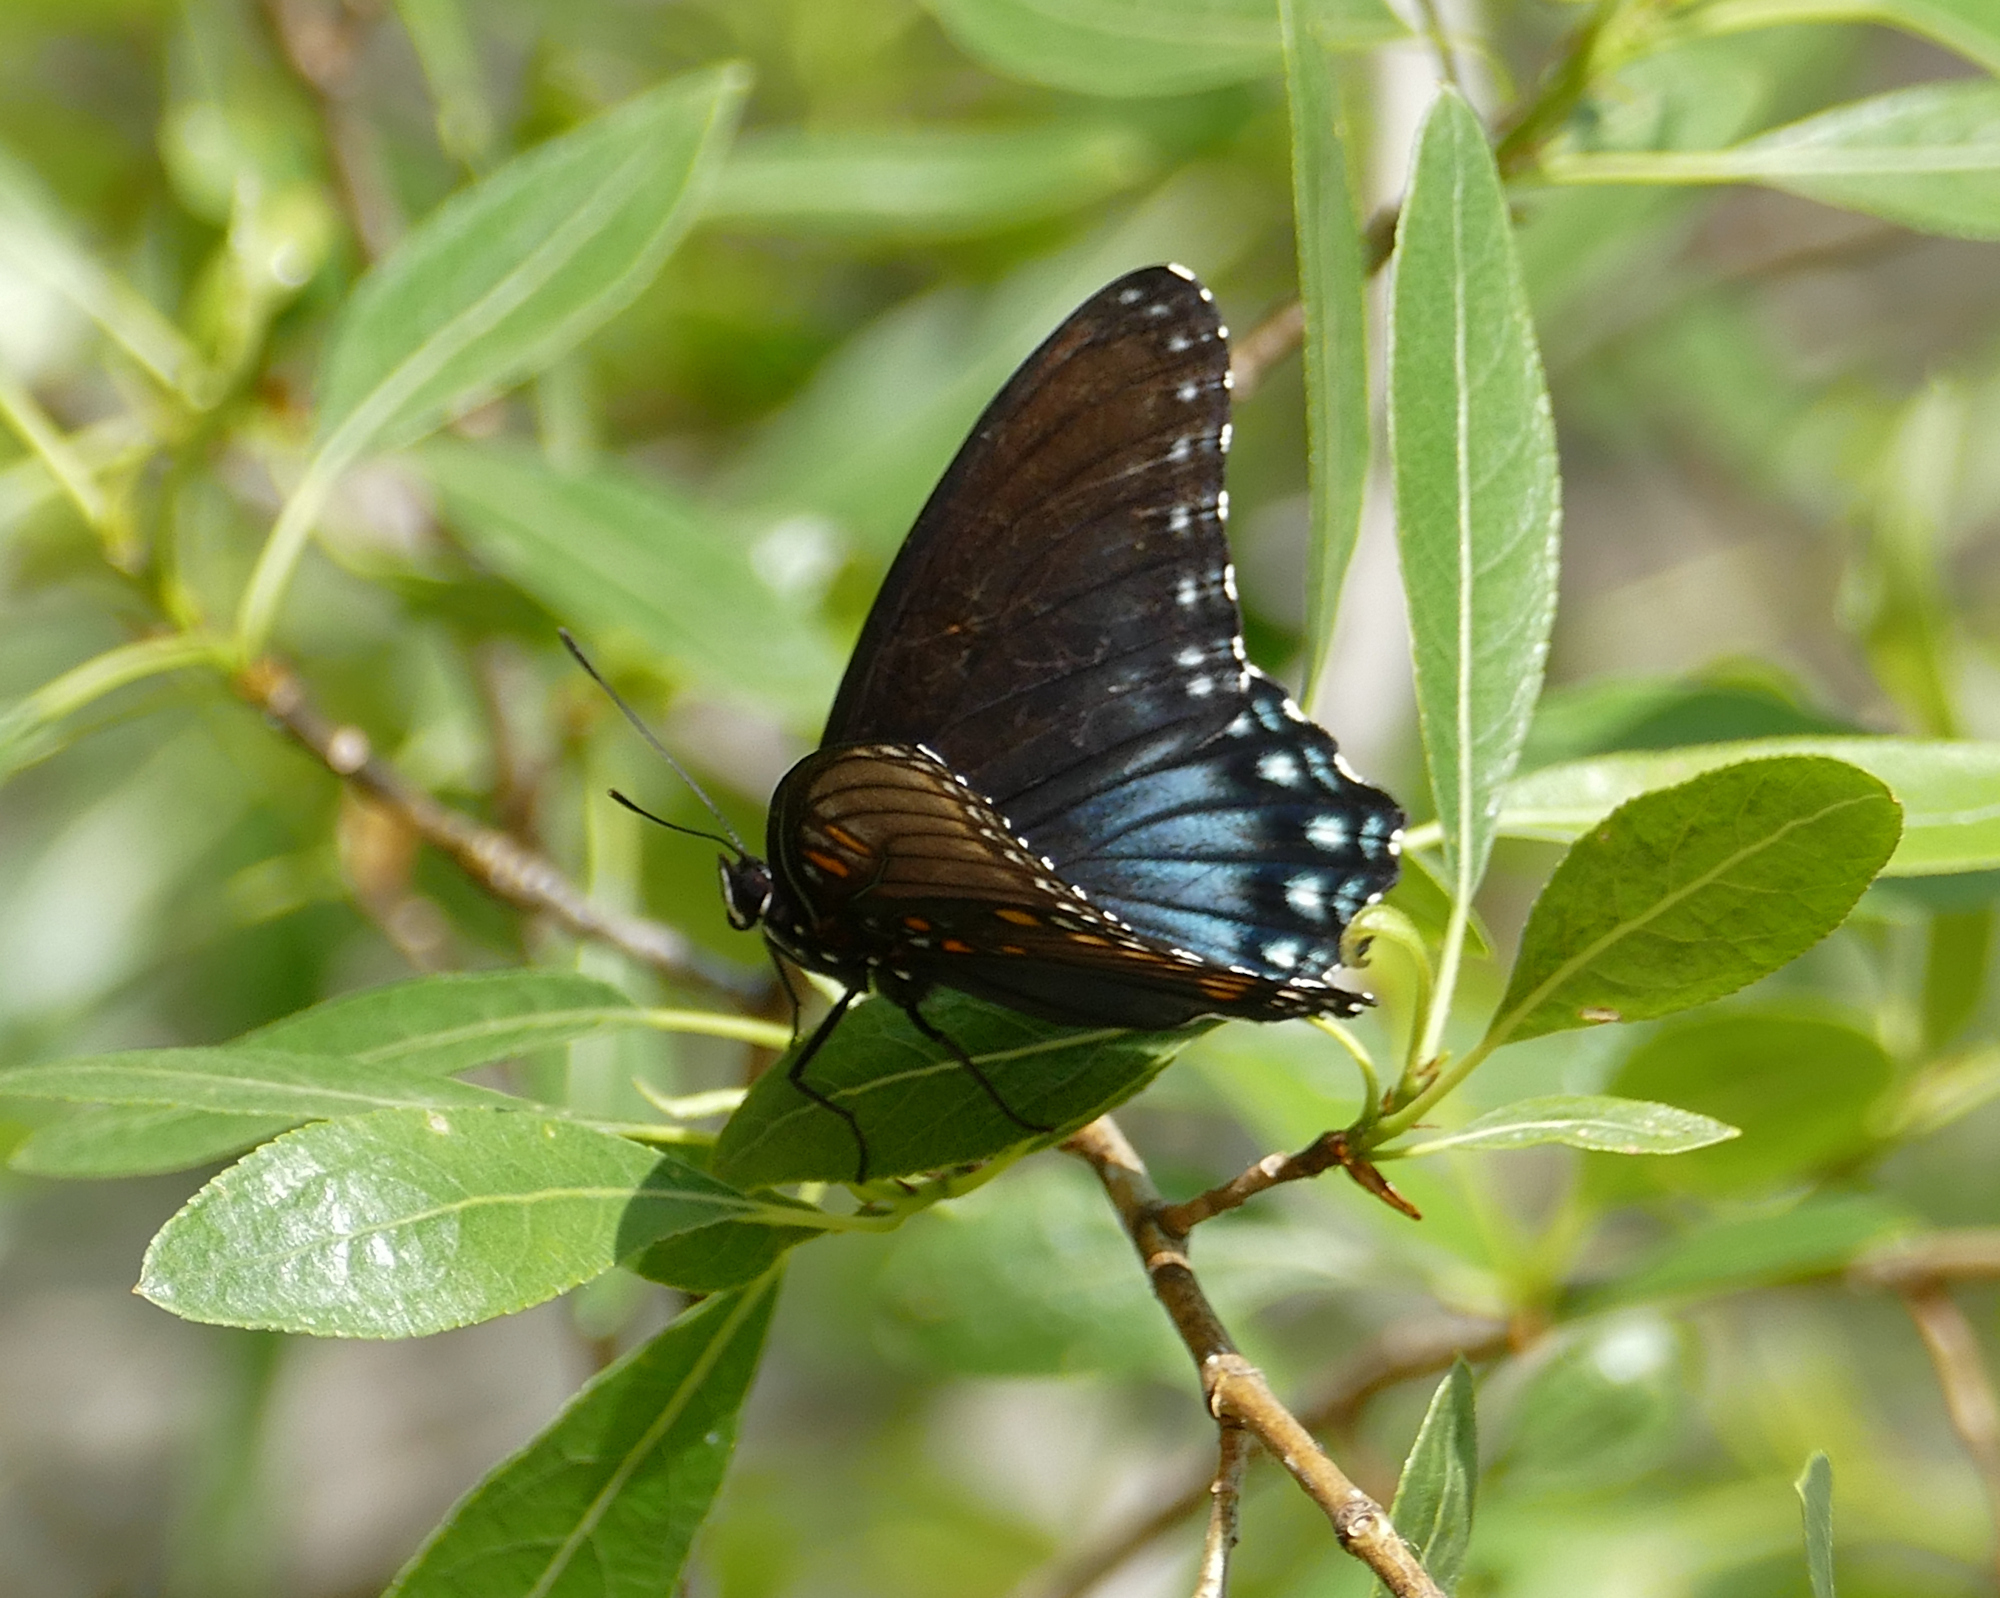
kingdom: Animalia
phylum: Arthropoda
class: Insecta
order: Lepidoptera
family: Nymphalidae
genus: Limenitis
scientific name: Limenitis arthemis
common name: Red-spotted admiral
